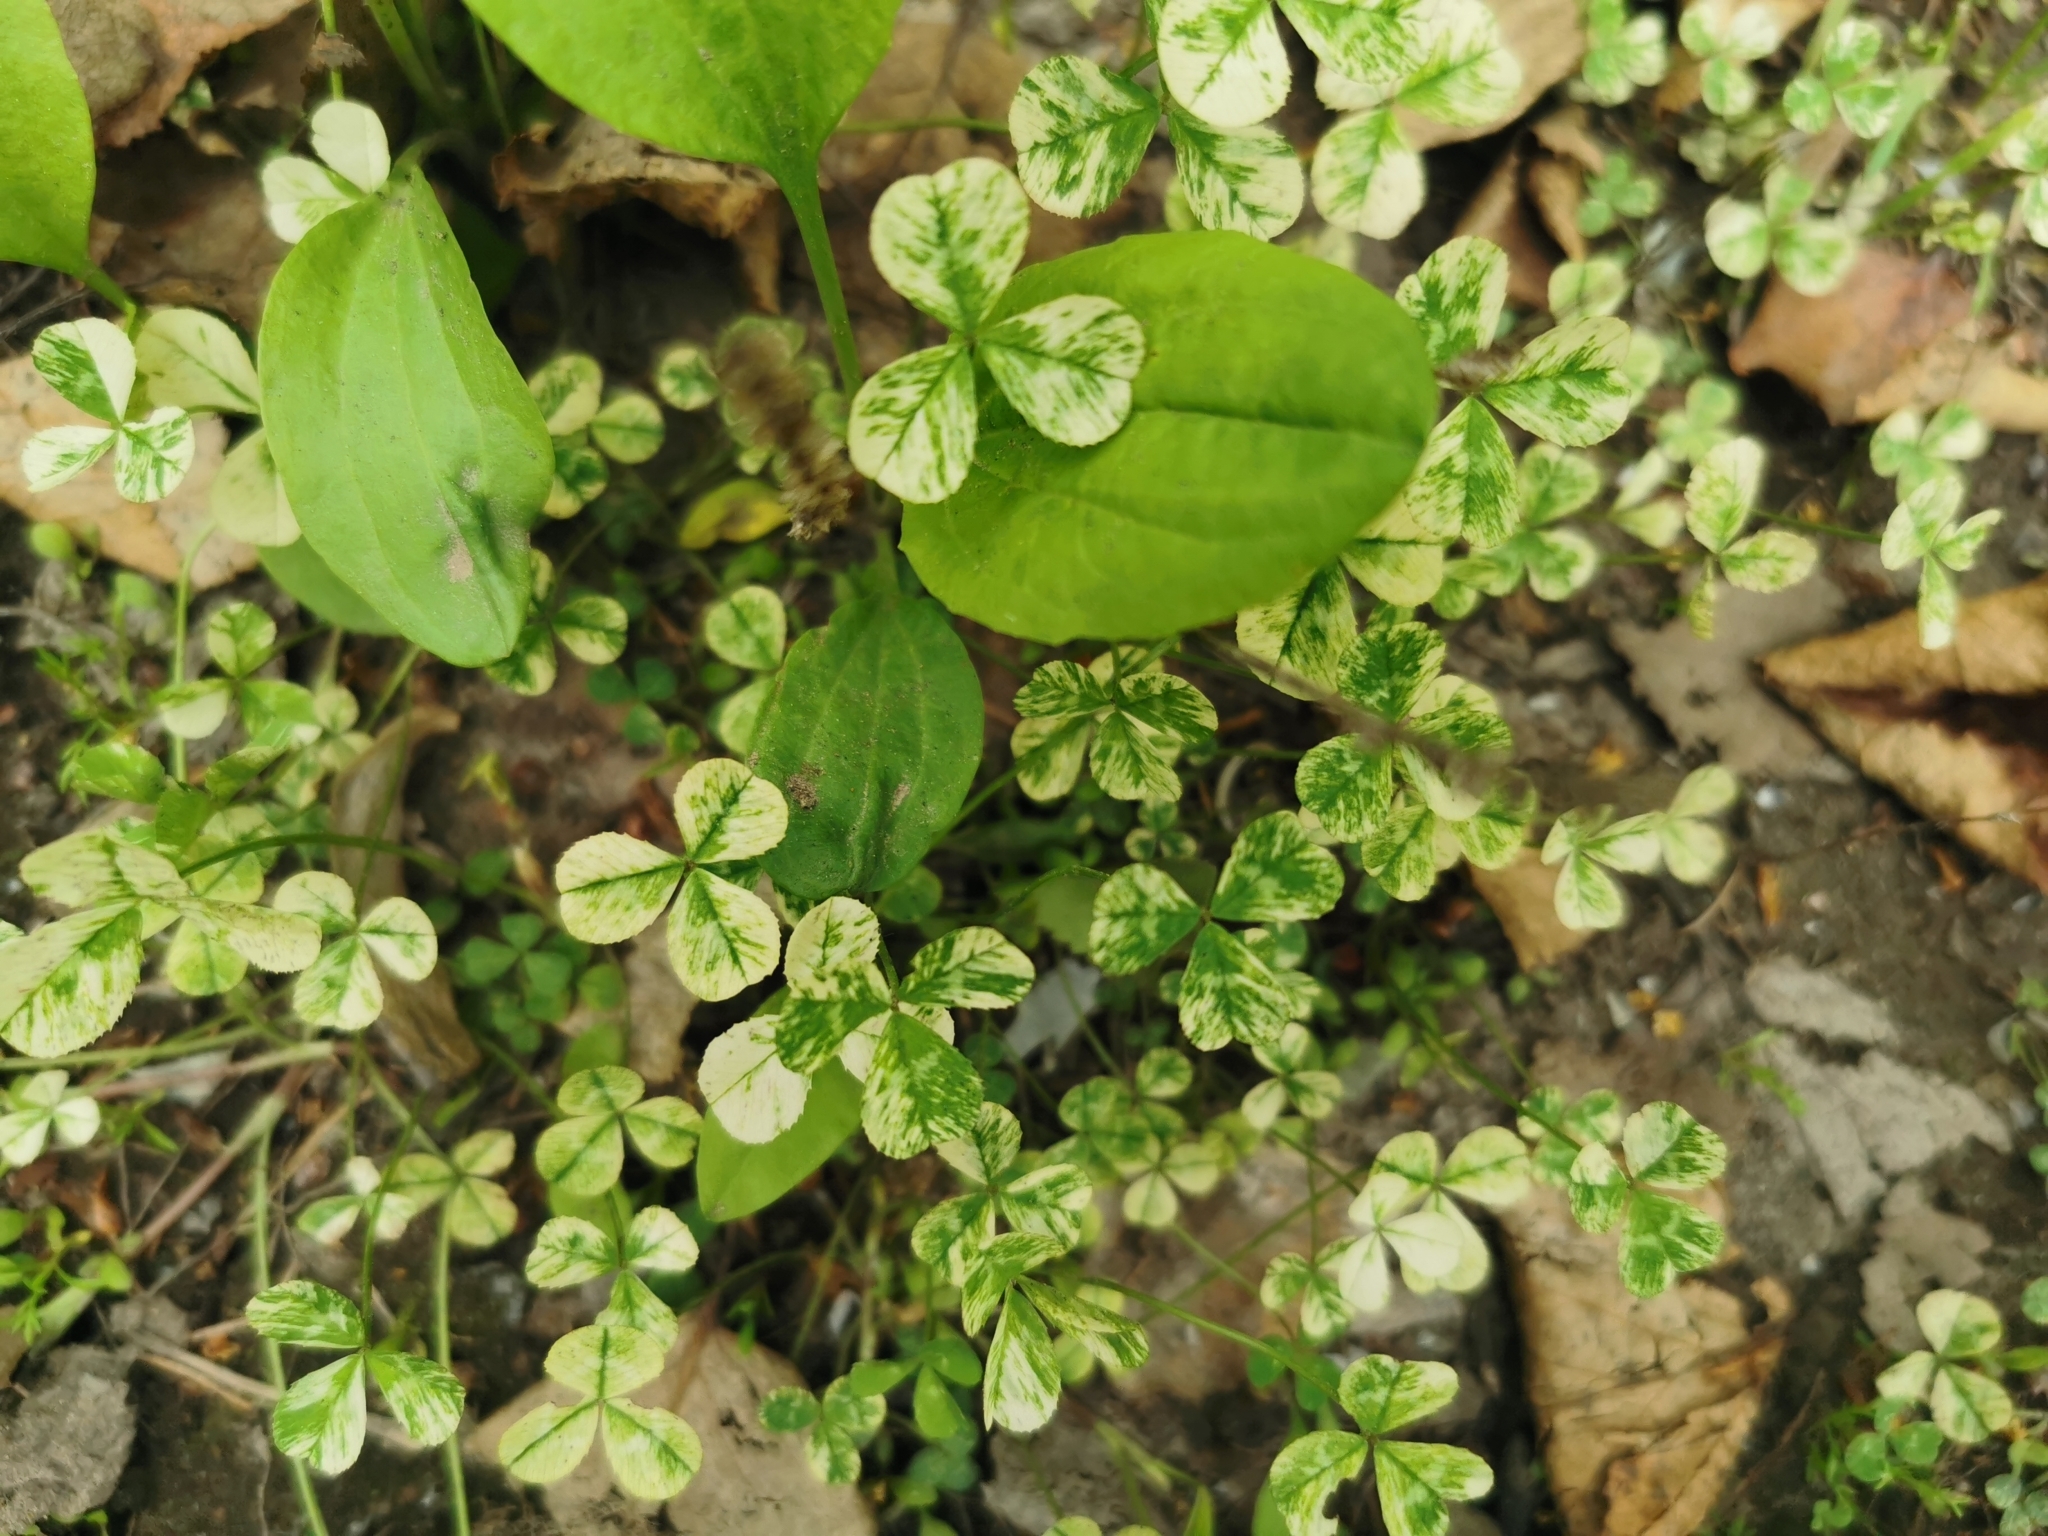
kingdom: Plantae
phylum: Tracheophyta
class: Magnoliopsida
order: Fabales
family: Fabaceae
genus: Trifolium
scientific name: Trifolium repens
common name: White clover
